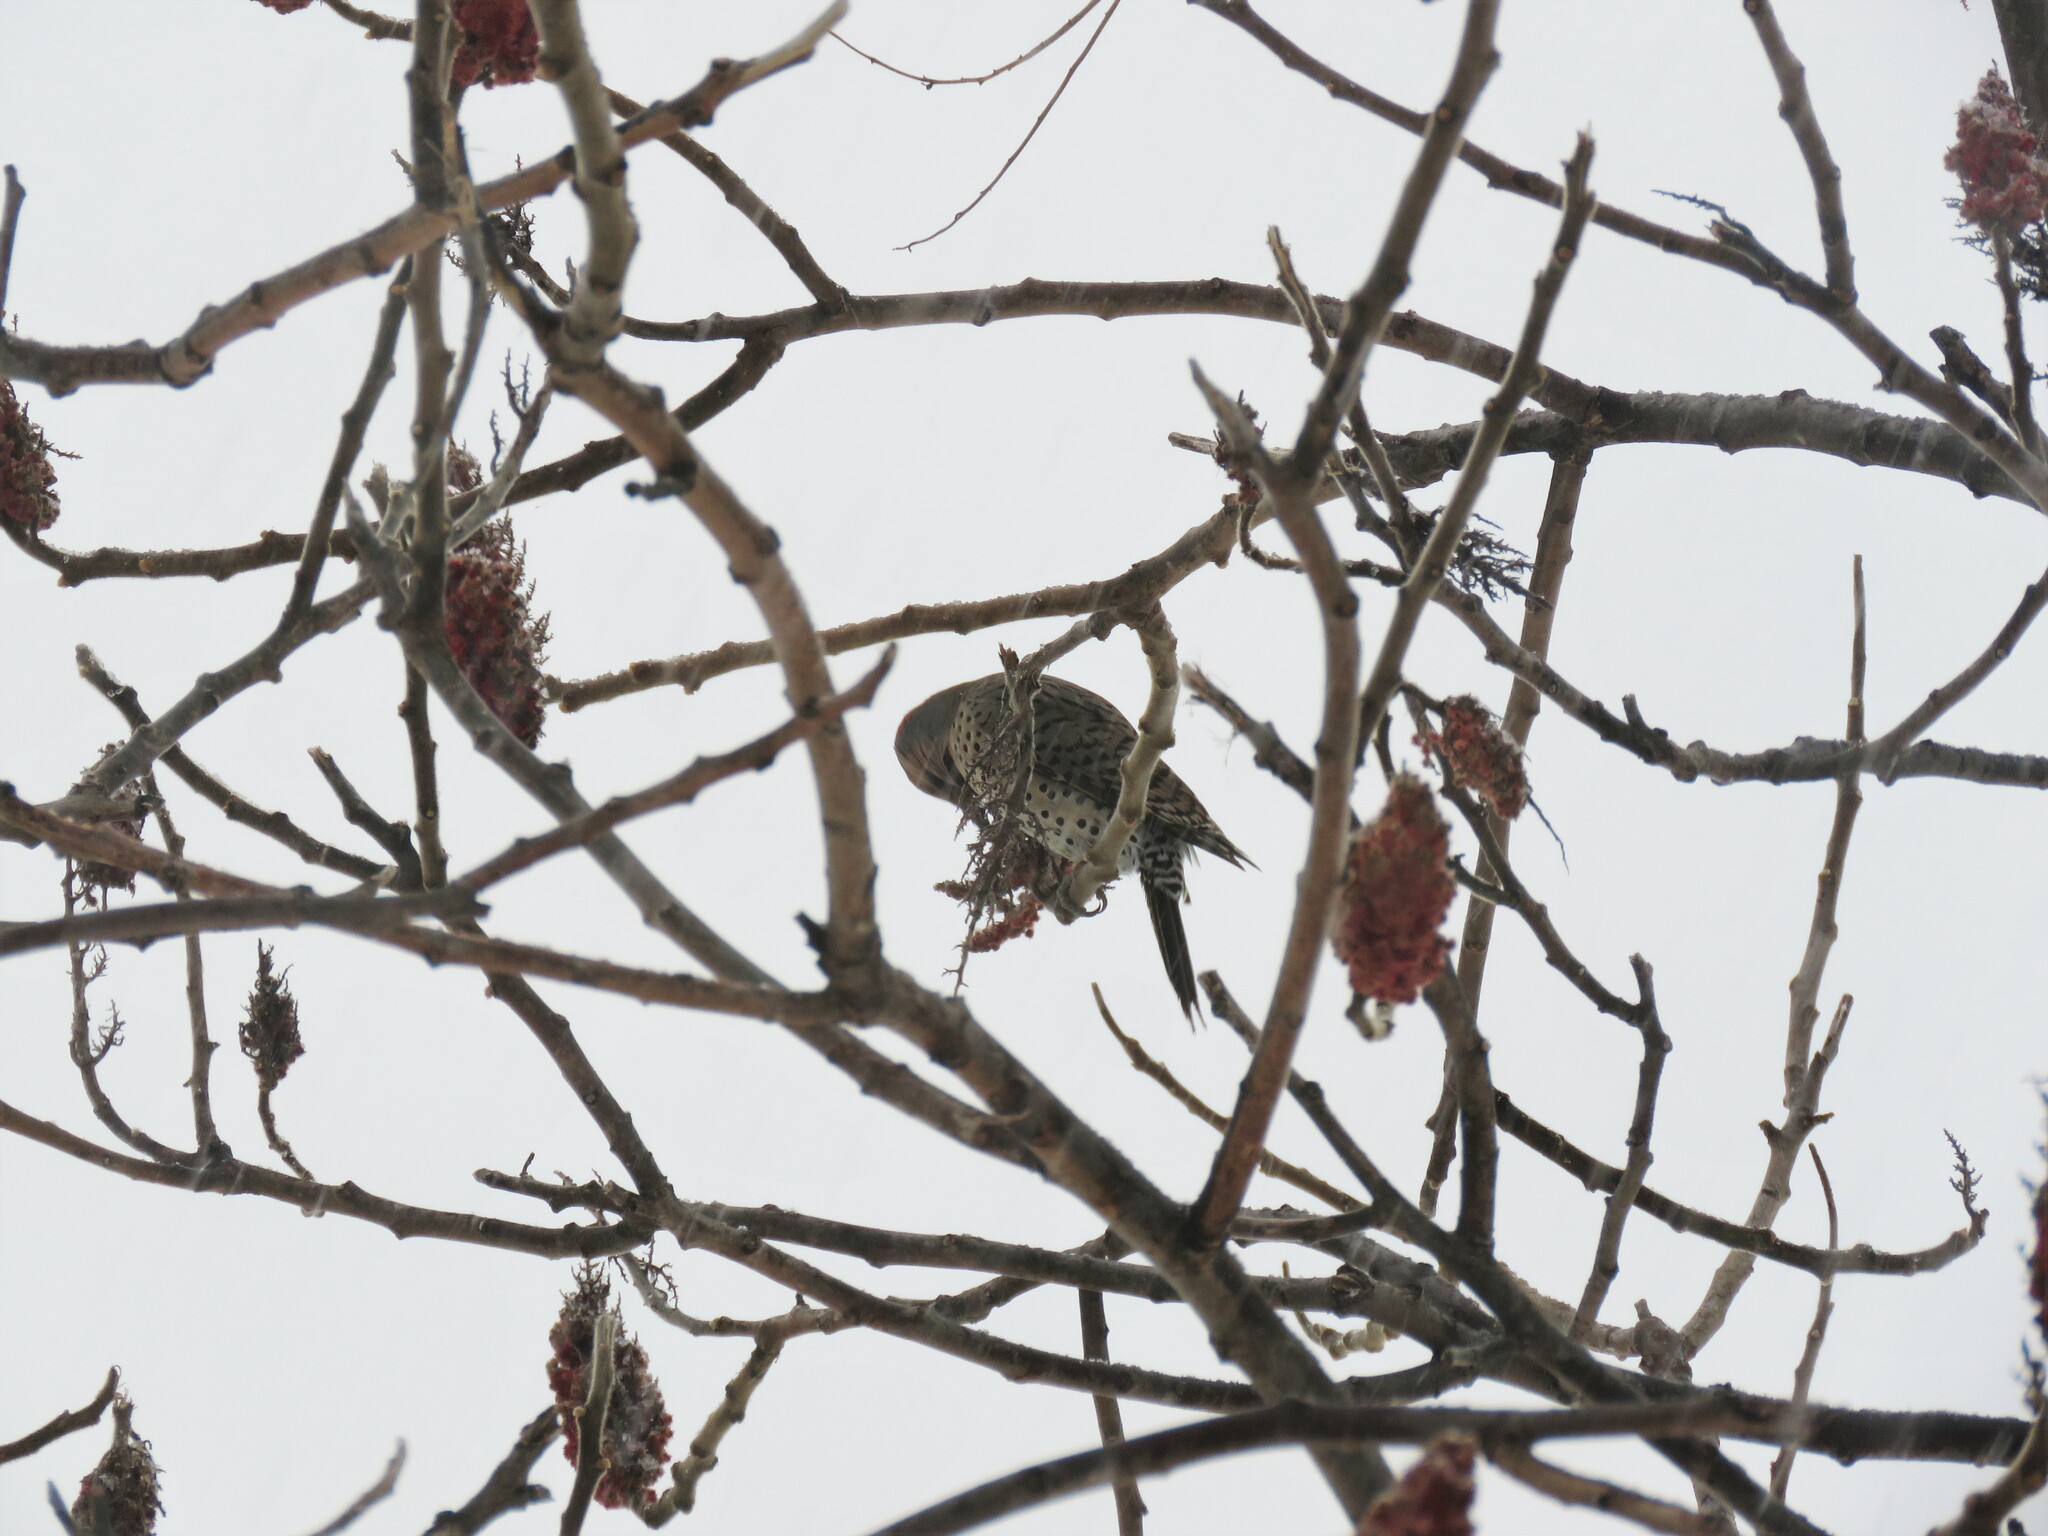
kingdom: Animalia
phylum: Chordata
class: Aves
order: Piciformes
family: Picidae
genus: Colaptes
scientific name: Colaptes auratus
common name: Northern flicker
